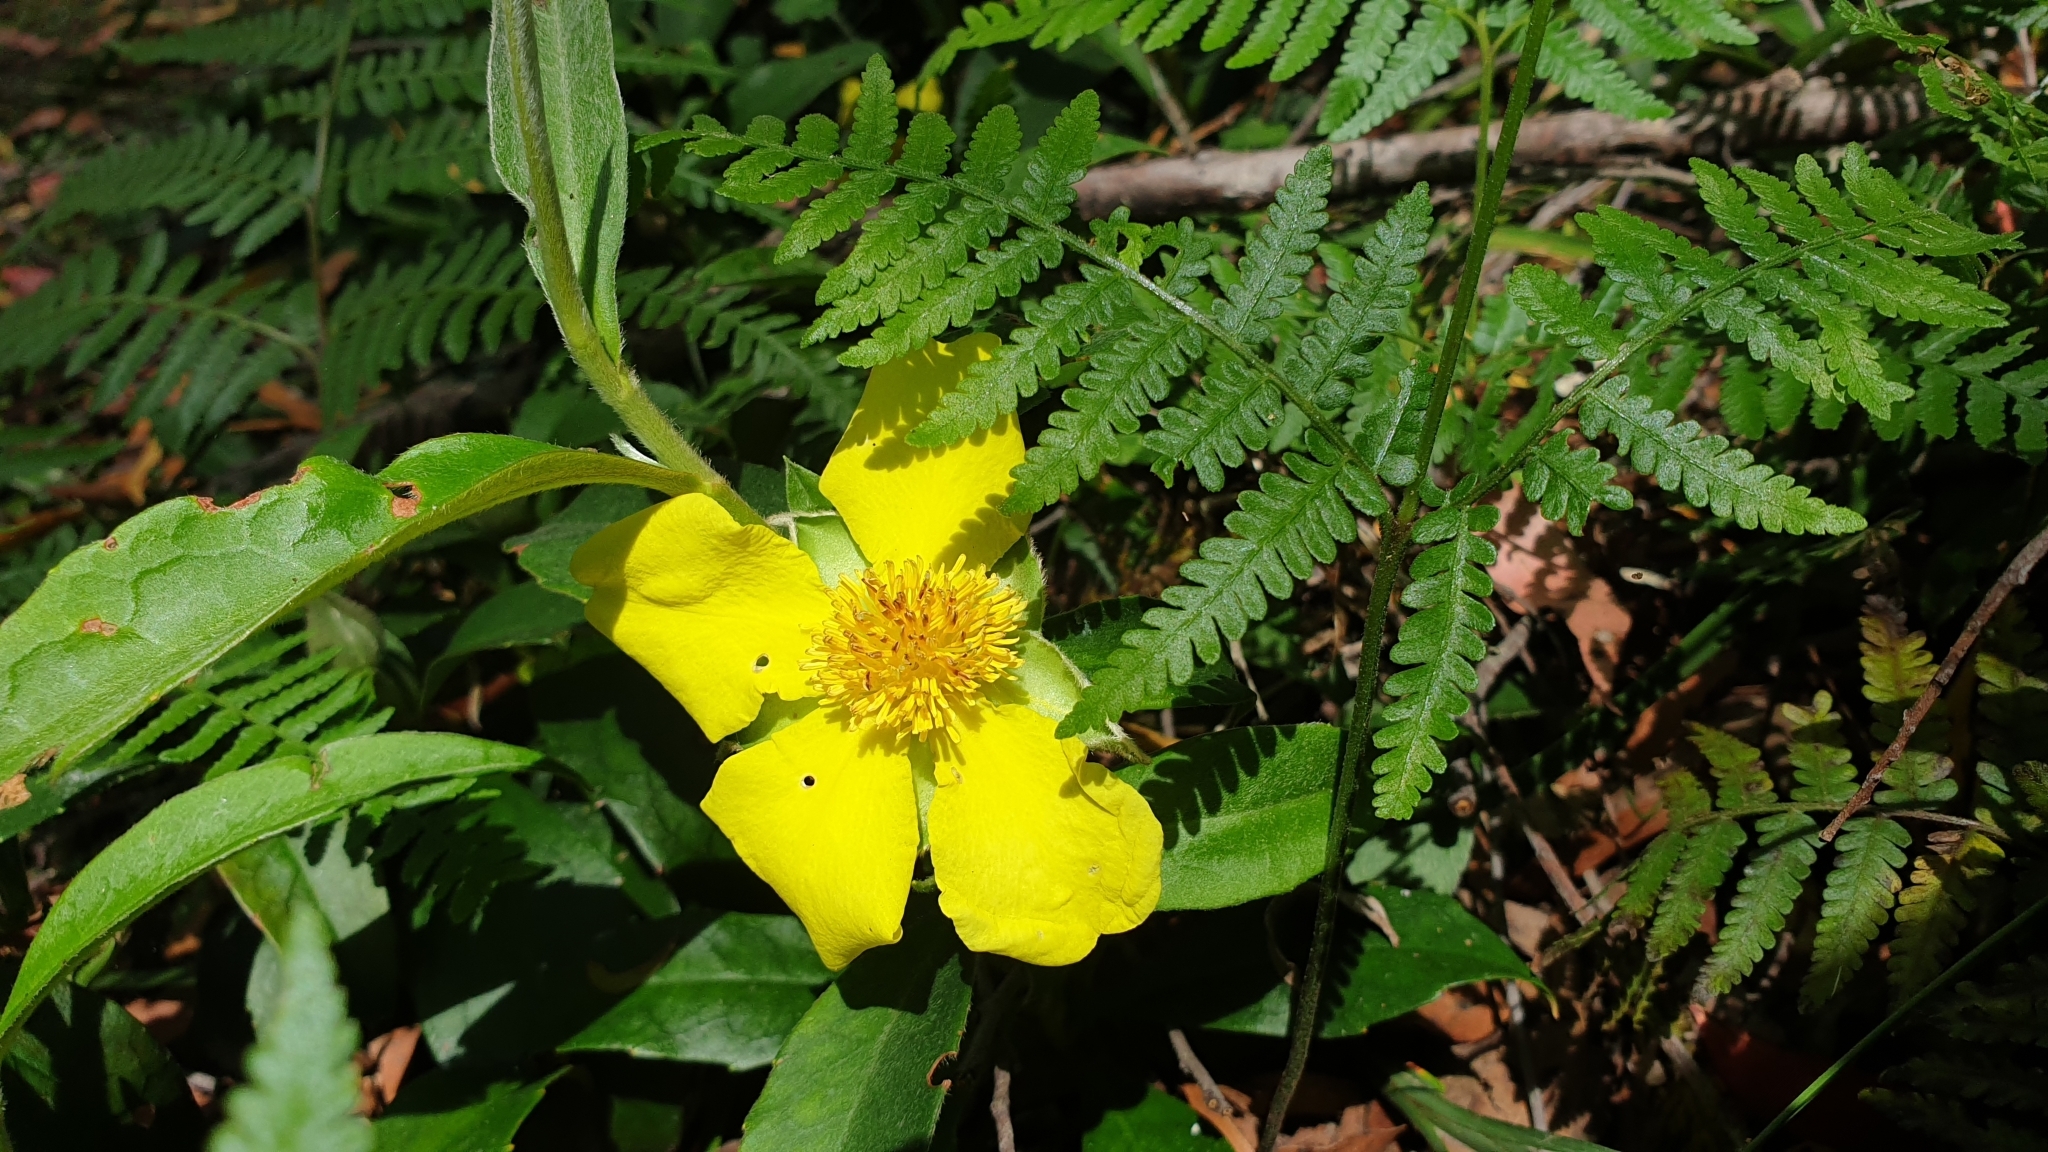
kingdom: Plantae
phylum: Tracheophyta
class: Magnoliopsida
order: Dilleniales
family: Dilleniaceae
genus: Hibbertia
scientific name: Hibbertia scandens
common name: Climbing guinea-flower
